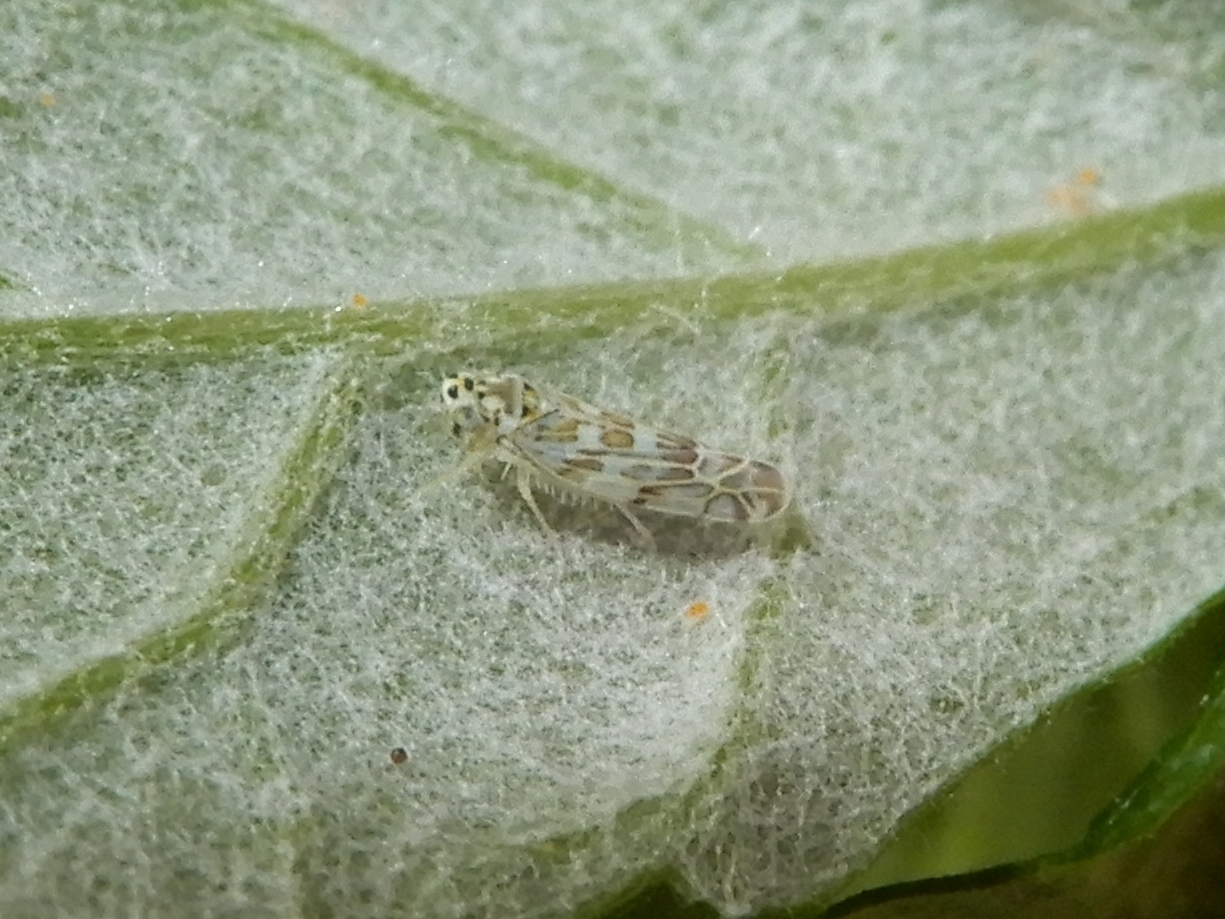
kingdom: Animalia
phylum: Arthropoda
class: Insecta
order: Hemiptera
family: Cicadellidae
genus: Eupteryx
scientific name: Eupteryx melissae
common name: Herb leafhopper
